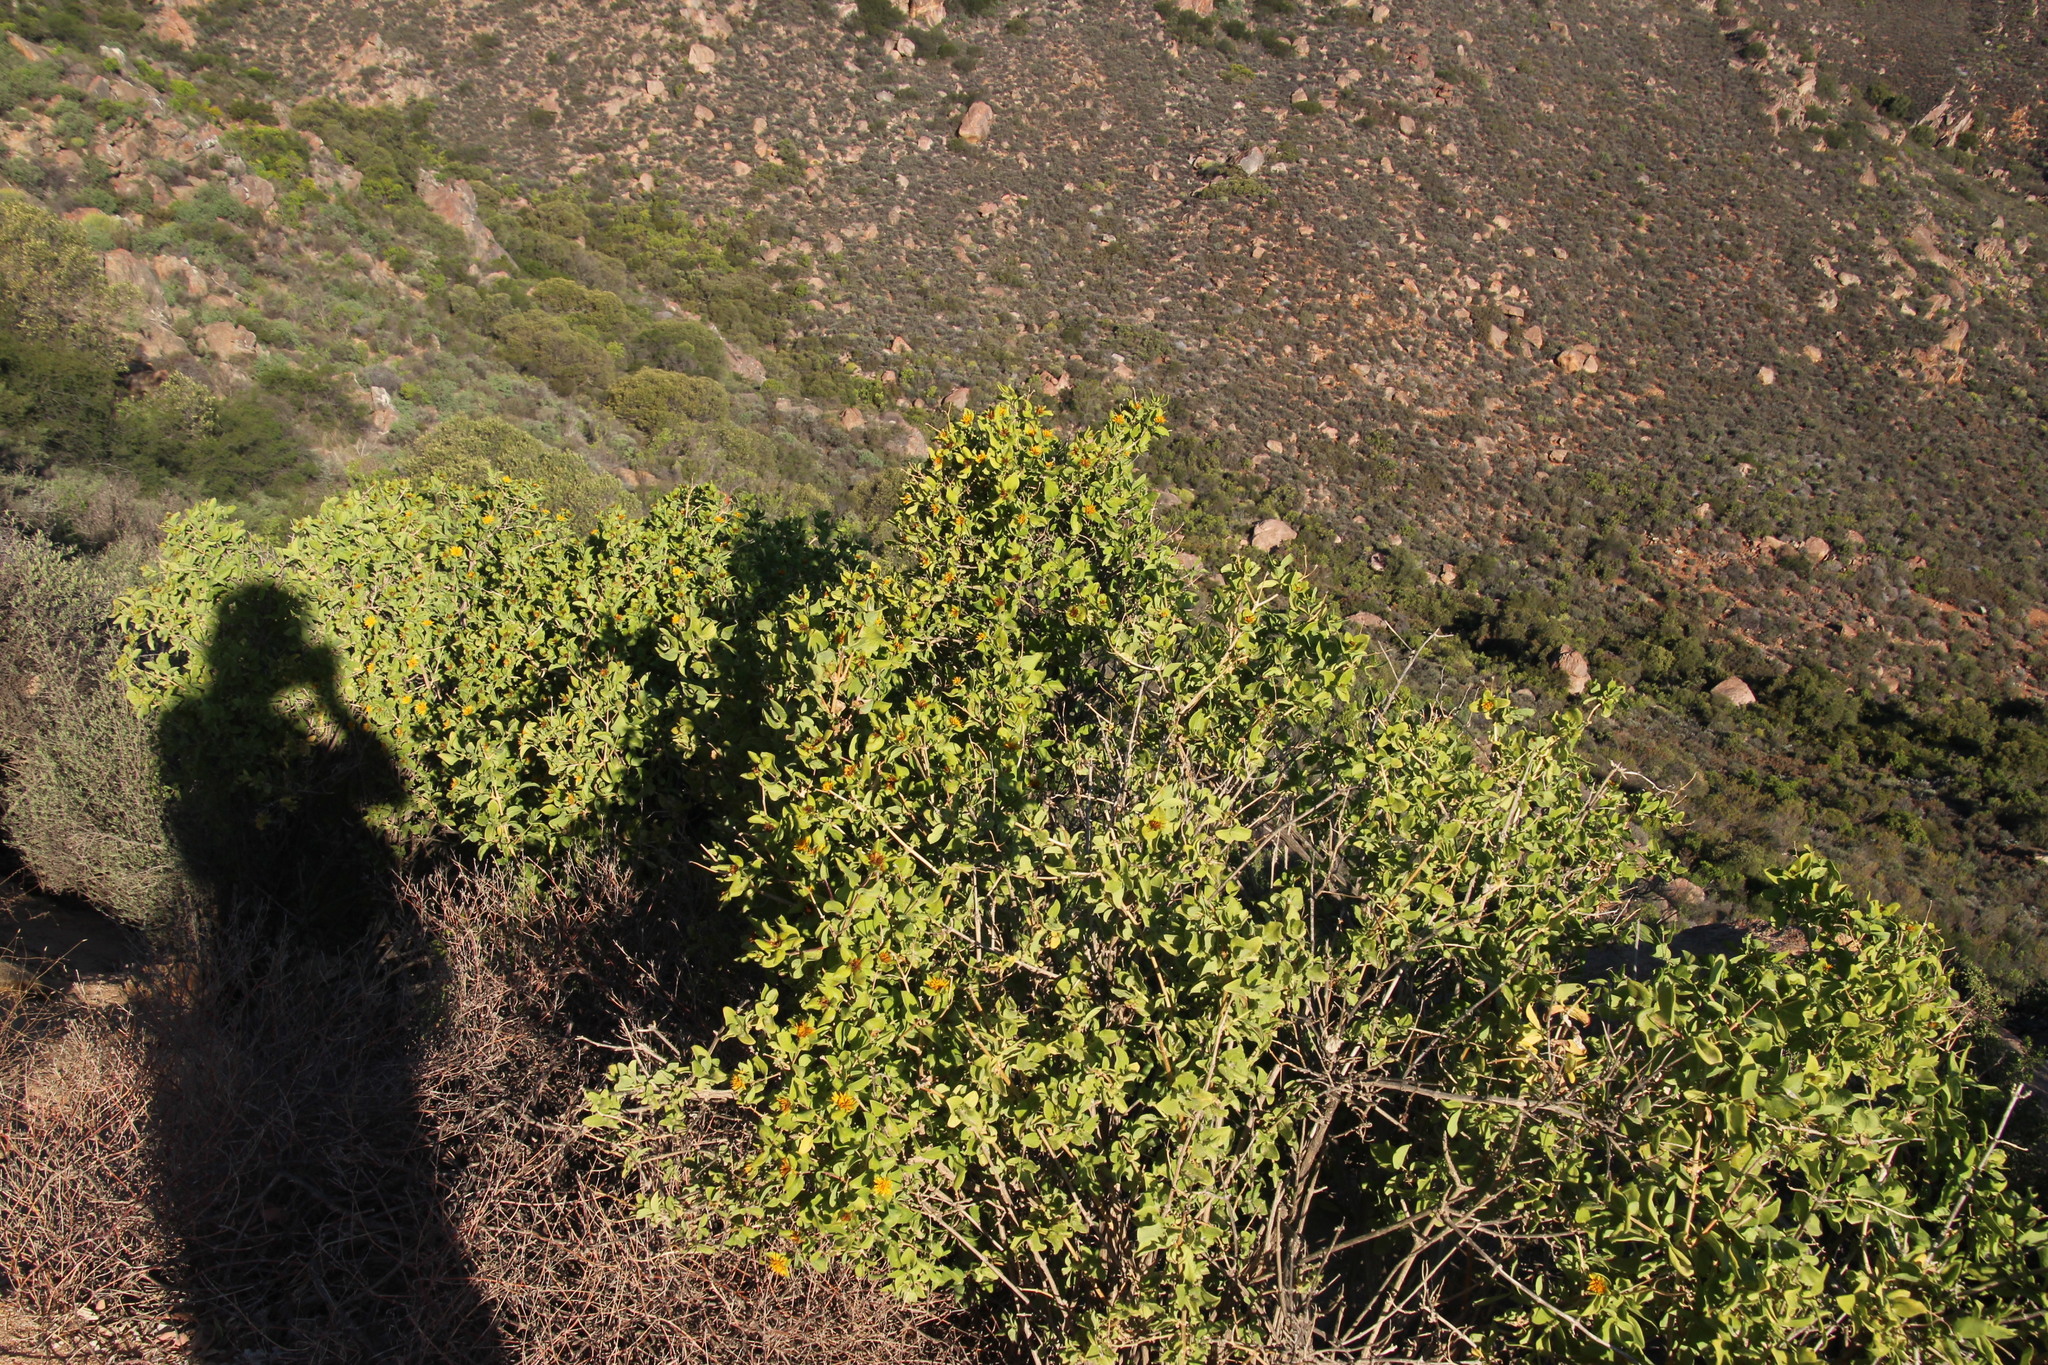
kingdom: Plantae
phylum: Tracheophyta
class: Magnoliopsida
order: Asterales
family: Asteraceae
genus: Didelta
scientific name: Didelta spinosa
